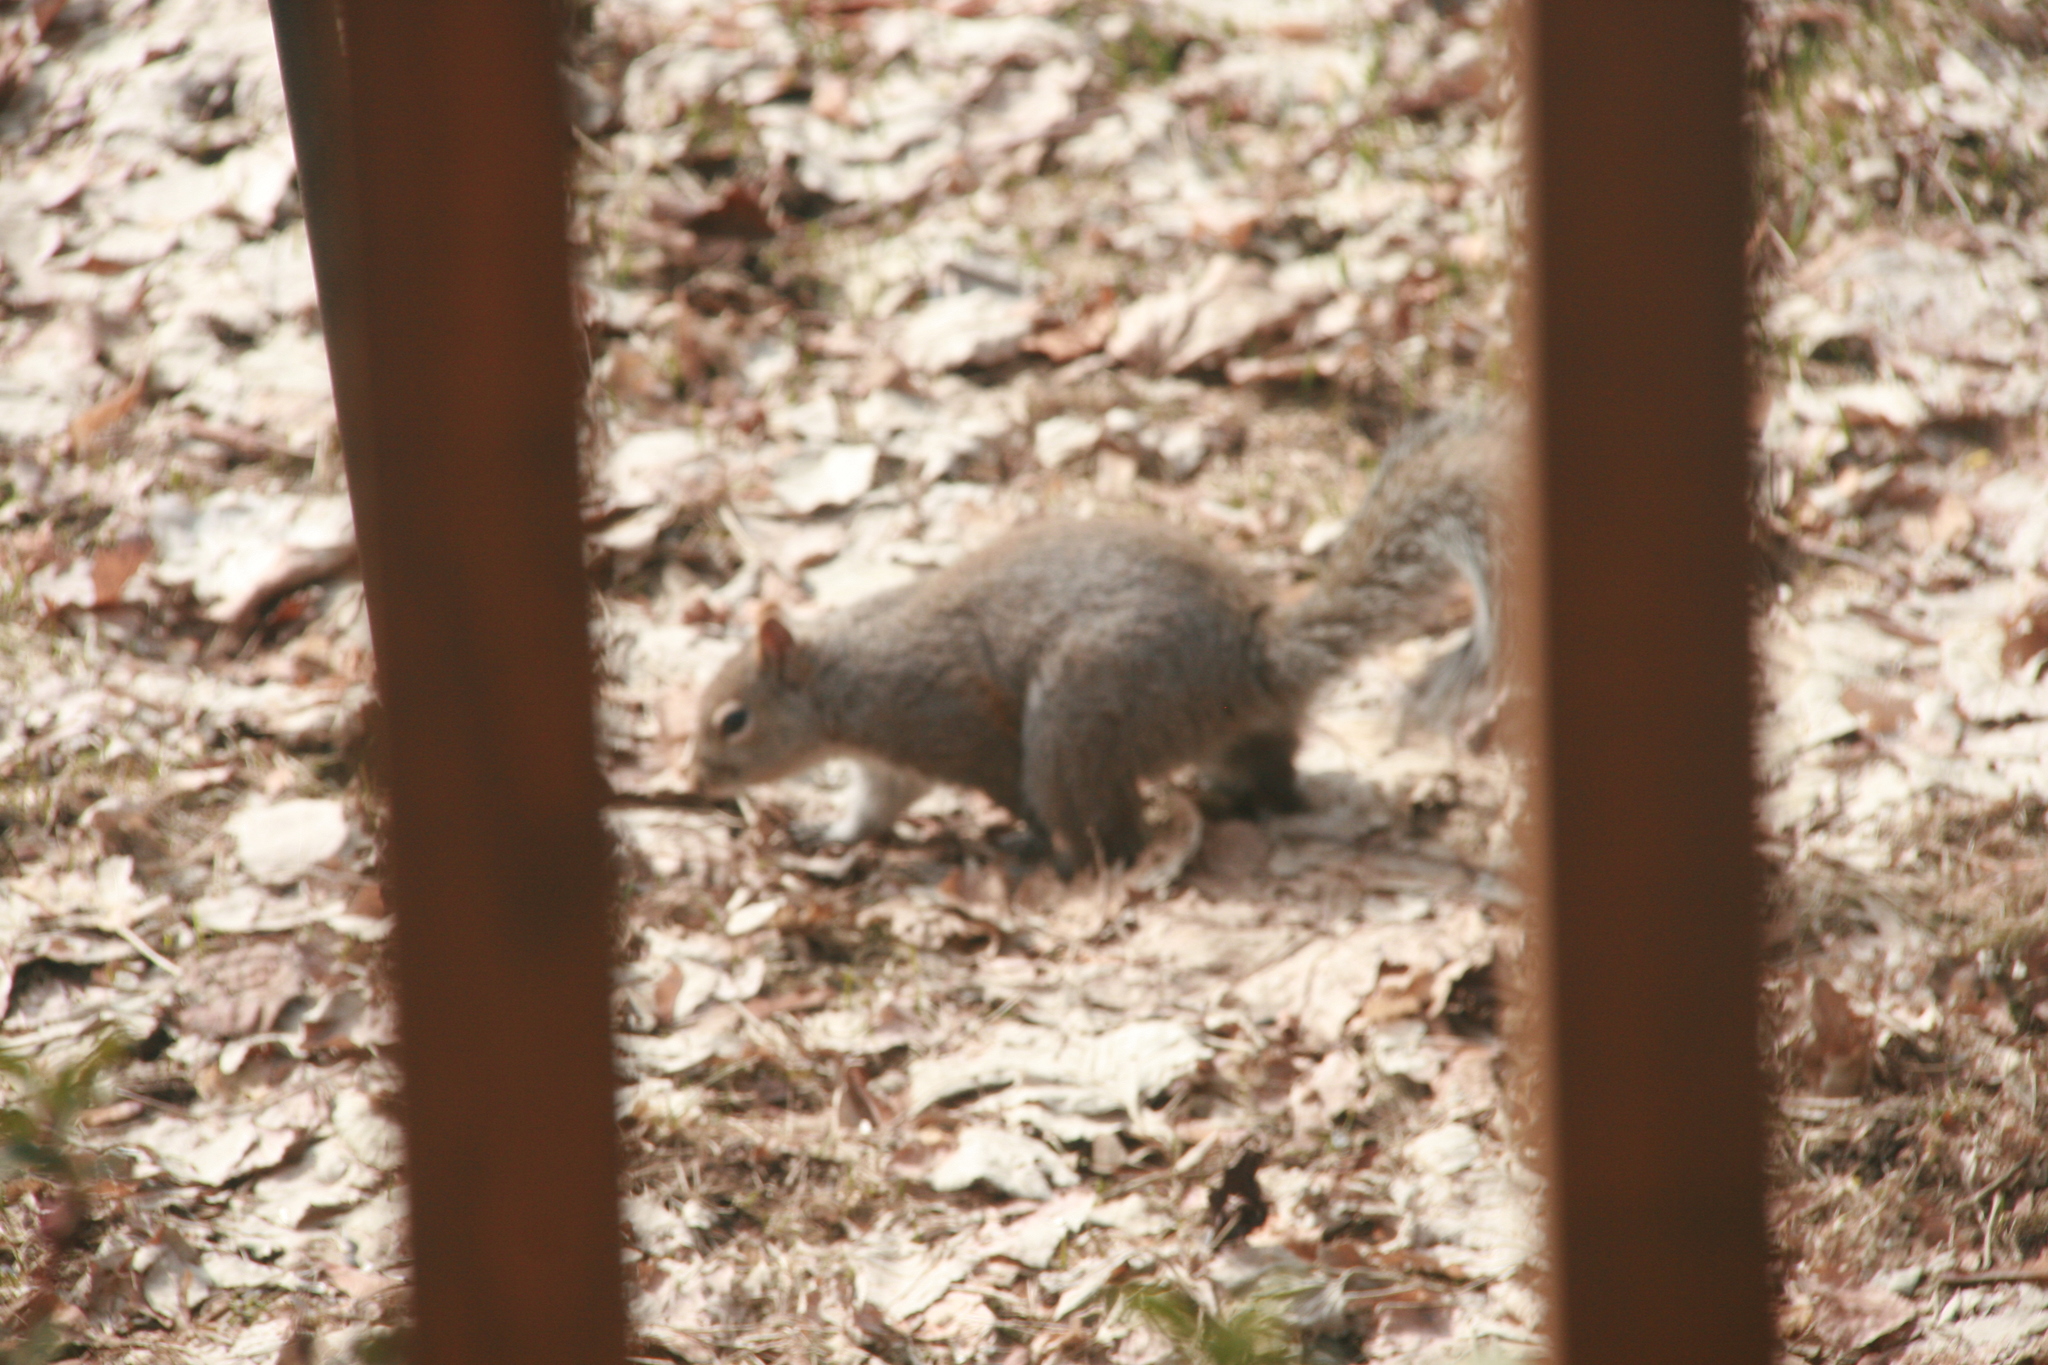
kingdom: Animalia
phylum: Chordata
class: Mammalia
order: Rodentia
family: Sciuridae
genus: Sciurus
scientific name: Sciurus carolinensis
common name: Eastern gray squirrel
